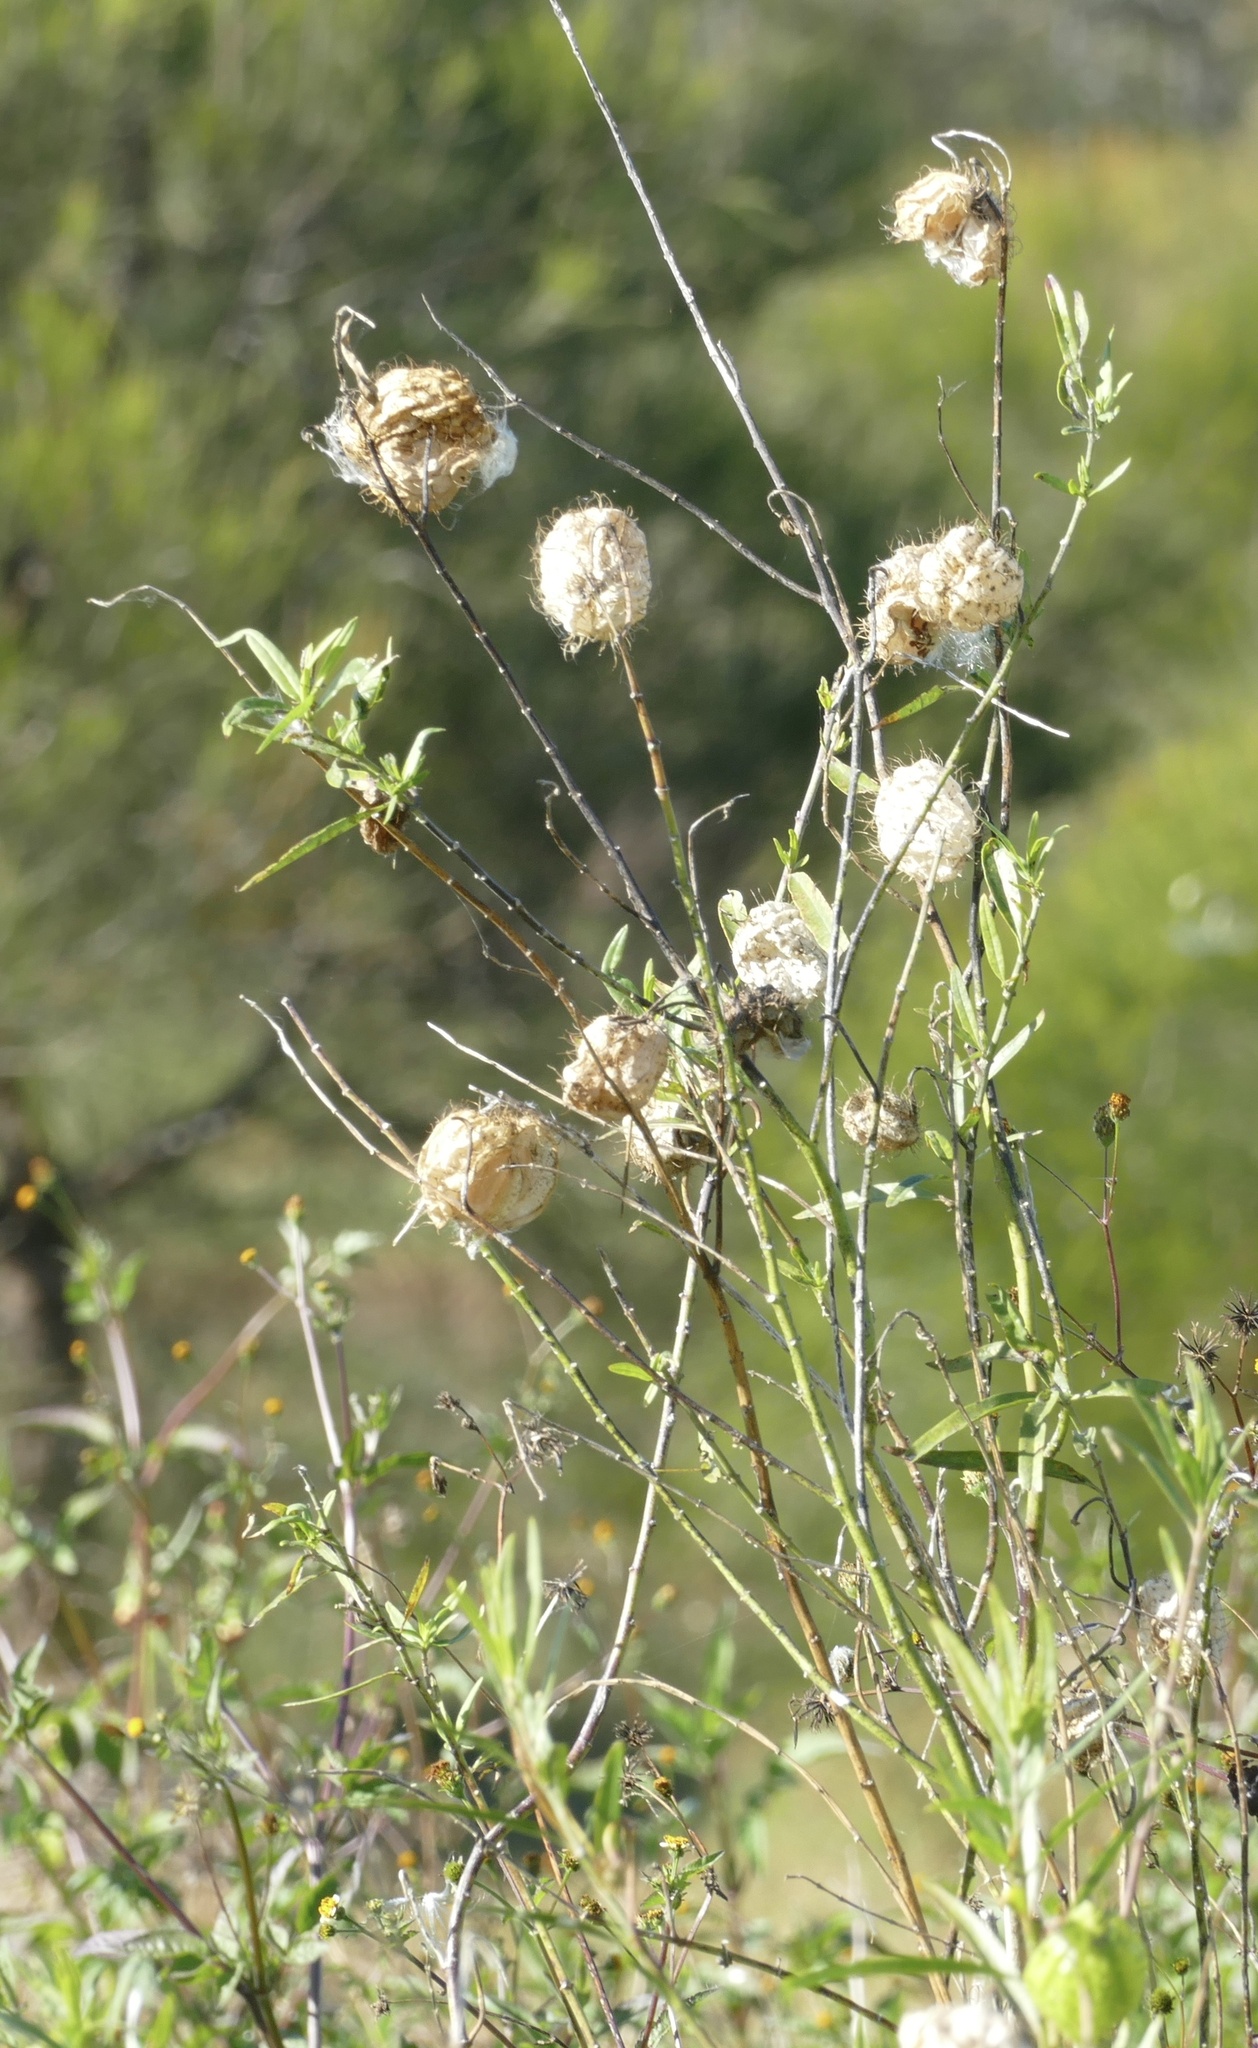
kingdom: Plantae
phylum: Tracheophyta
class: Magnoliopsida
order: Gentianales
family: Apocynaceae
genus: Gomphocarpus
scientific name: Gomphocarpus physocarpus
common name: Balloon cotton bush
